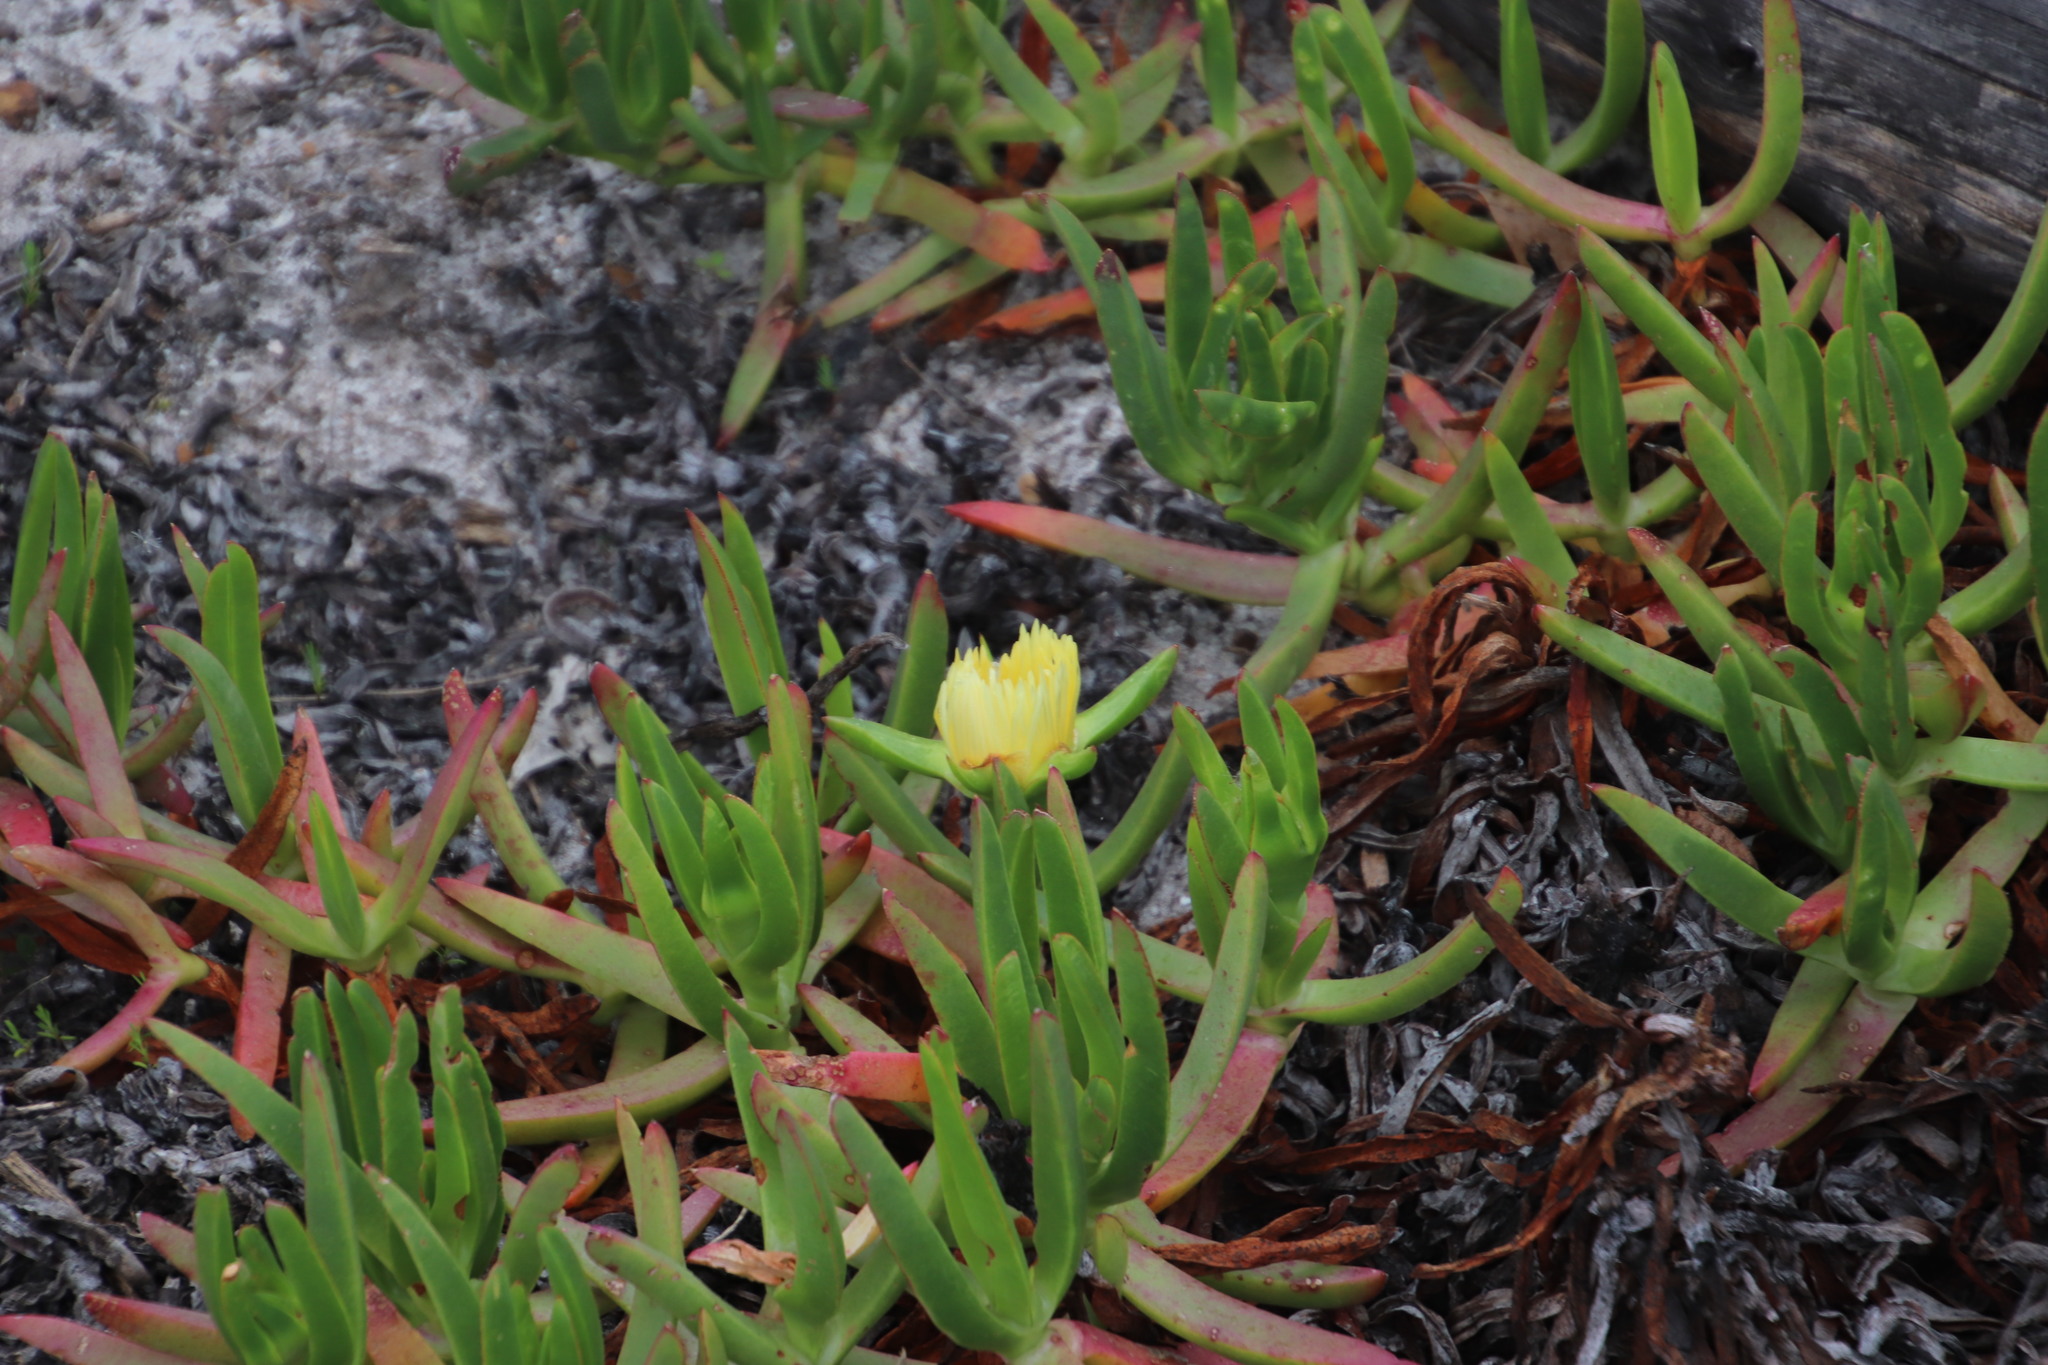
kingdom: Plantae
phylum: Tracheophyta
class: Magnoliopsida
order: Caryophyllales
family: Aizoaceae
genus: Carpobrotus
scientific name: Carpobrotus edulis
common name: Hottentot-fig
